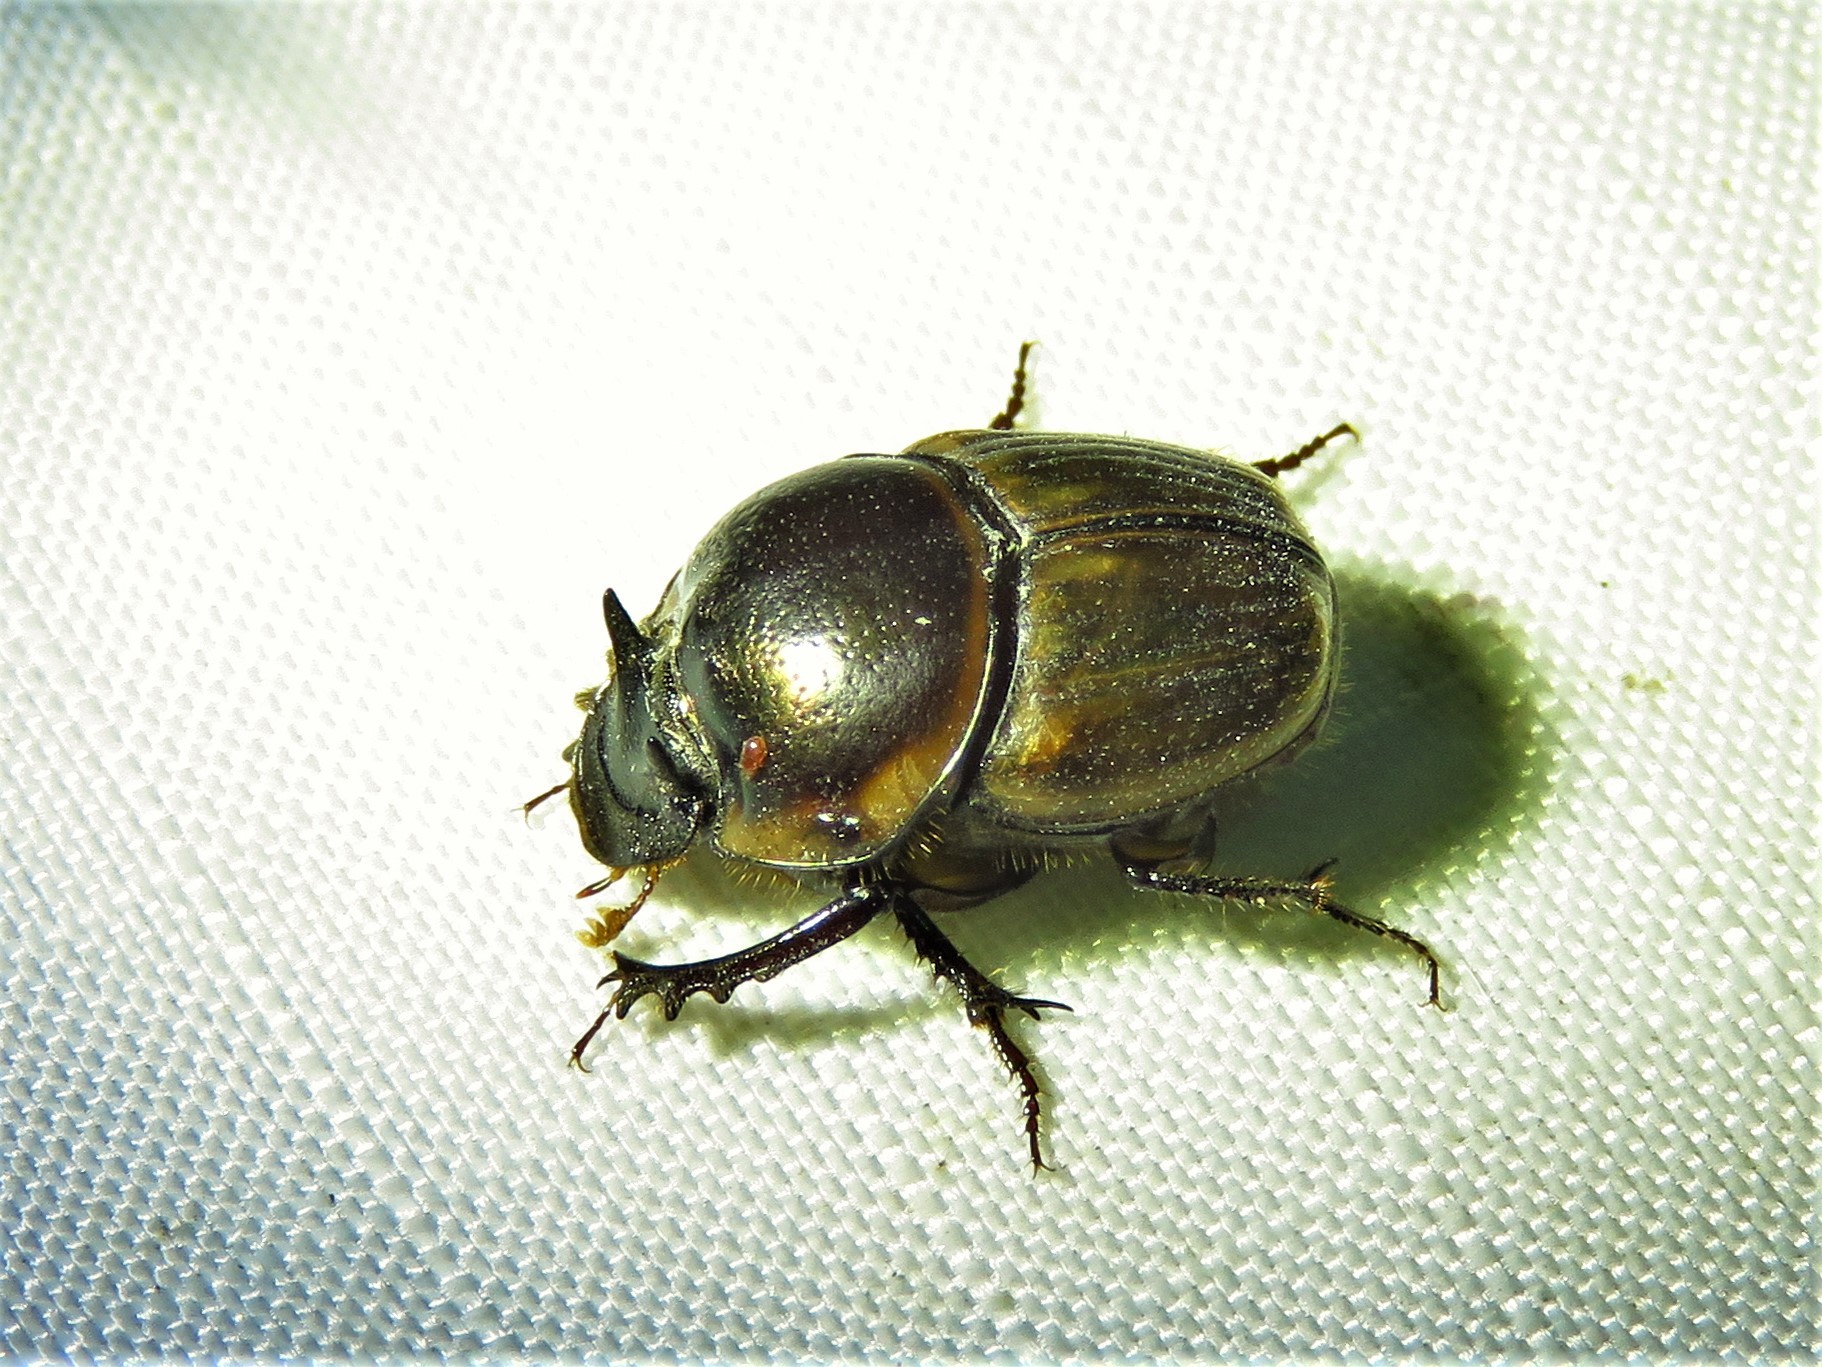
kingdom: Animalia
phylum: Arthropoda
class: Insecta
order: Coleoptera
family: Scarabaeidae
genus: Digitonthophagus
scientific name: Digitonthophagus gazella
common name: Brown dung beetle
